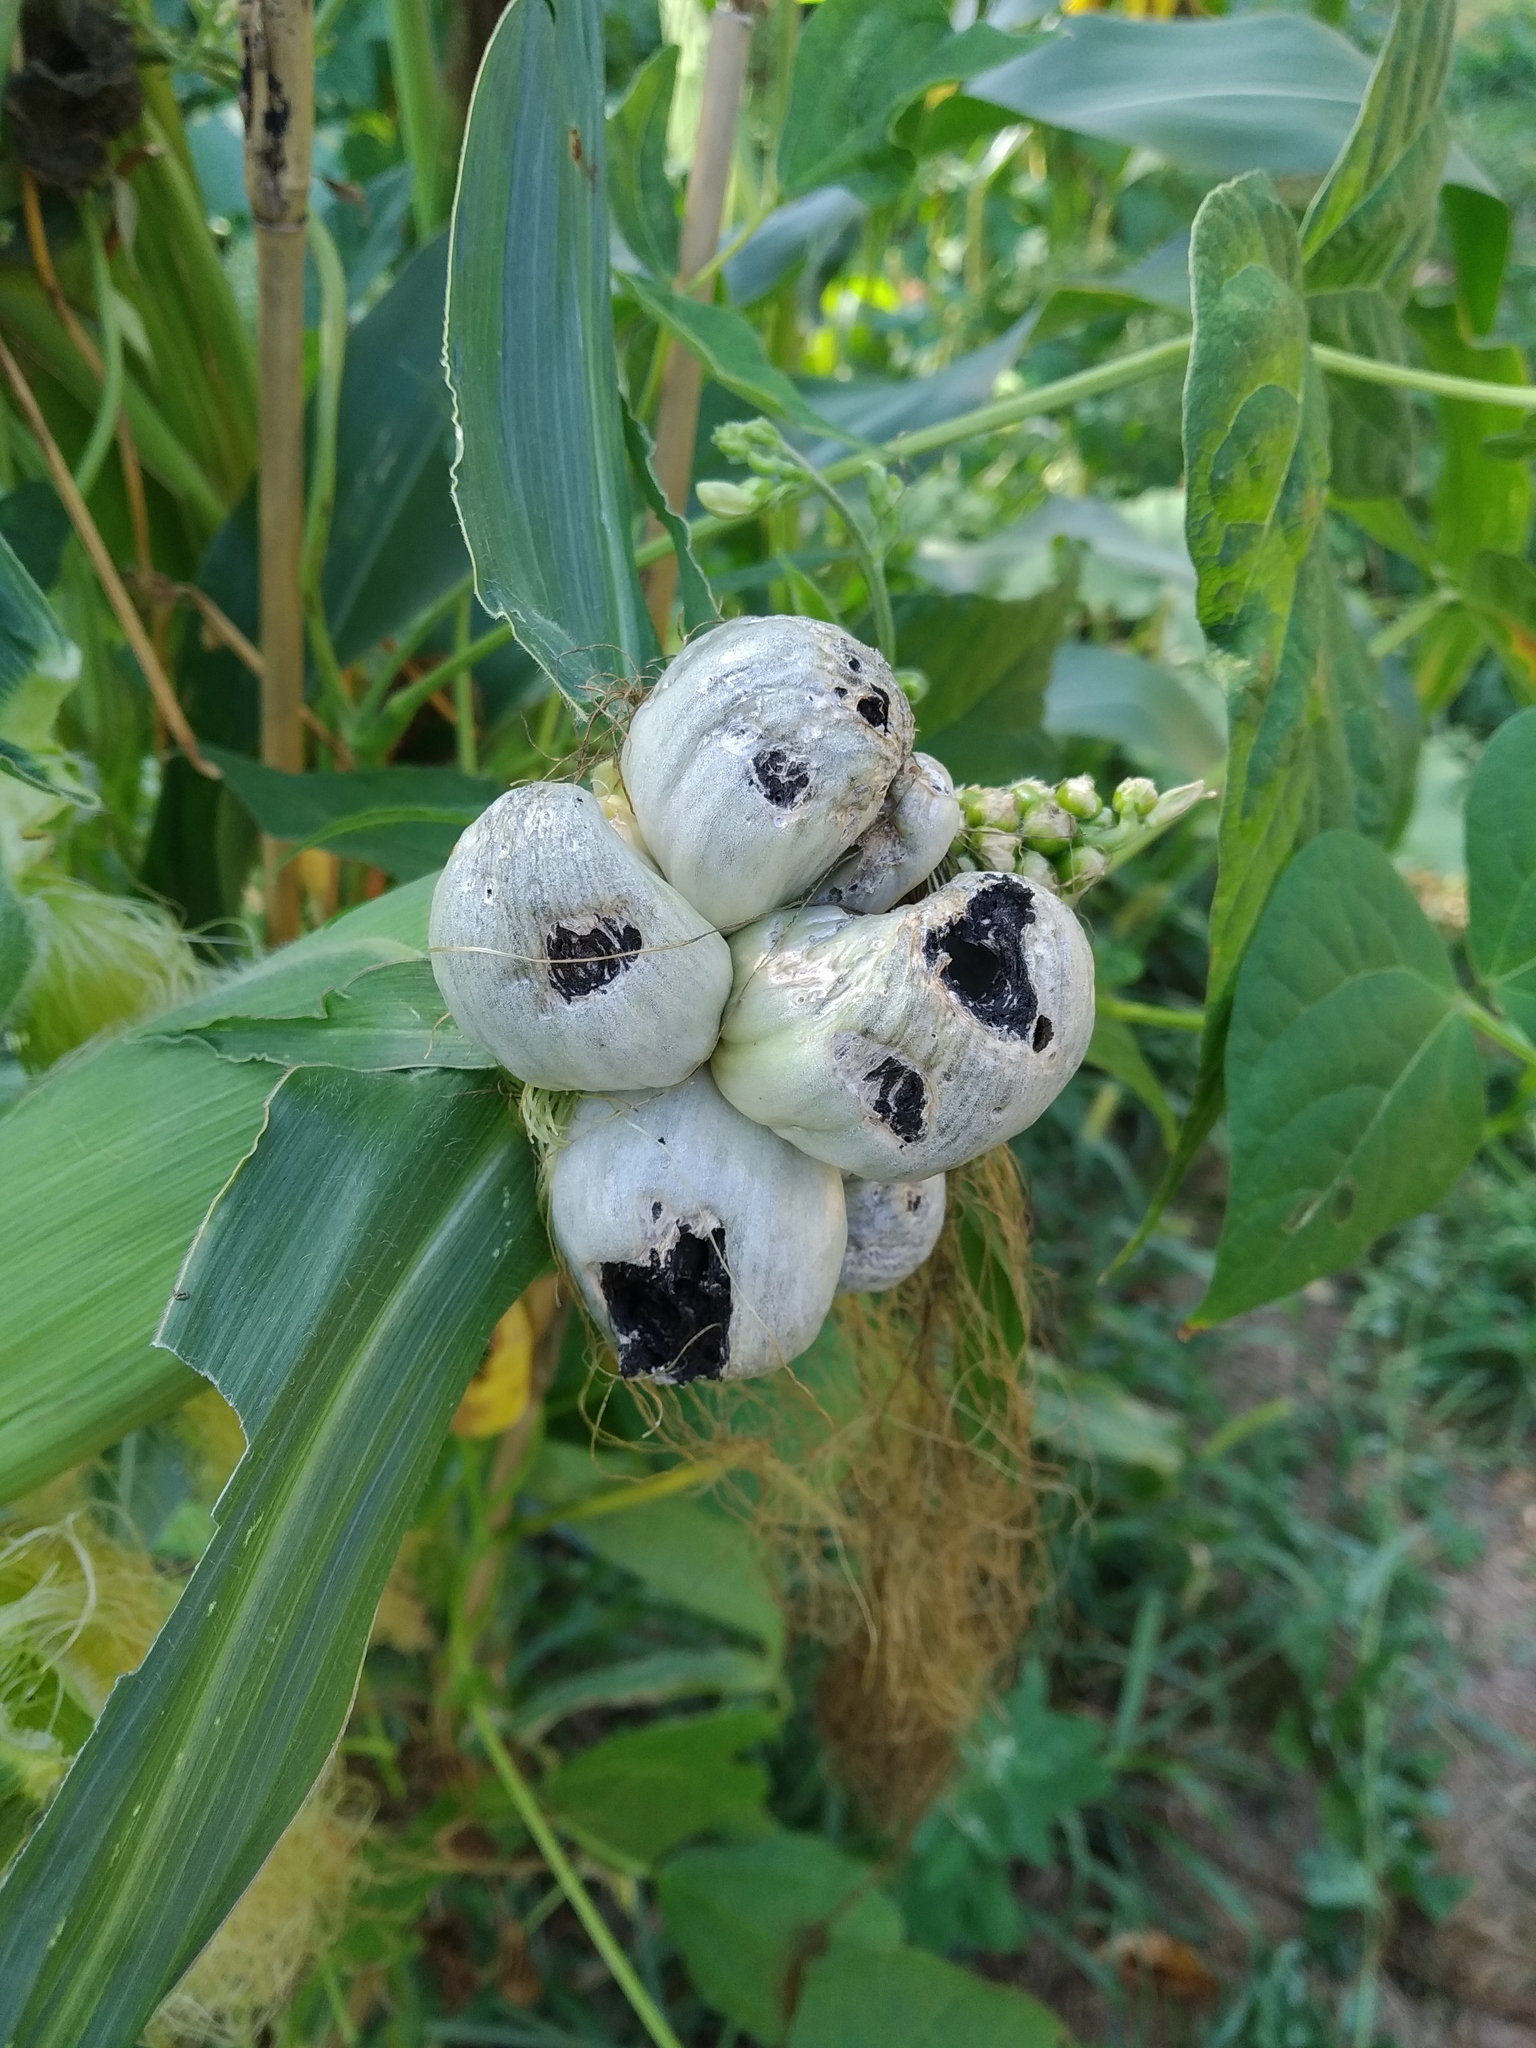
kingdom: Fungi
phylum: Basidiomycota
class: Ustilaginomycetes
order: Ustilaginales
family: Ustilaginaceae
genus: Mycosarcoma
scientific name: Mycosarcoma maydis
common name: Corn smut
